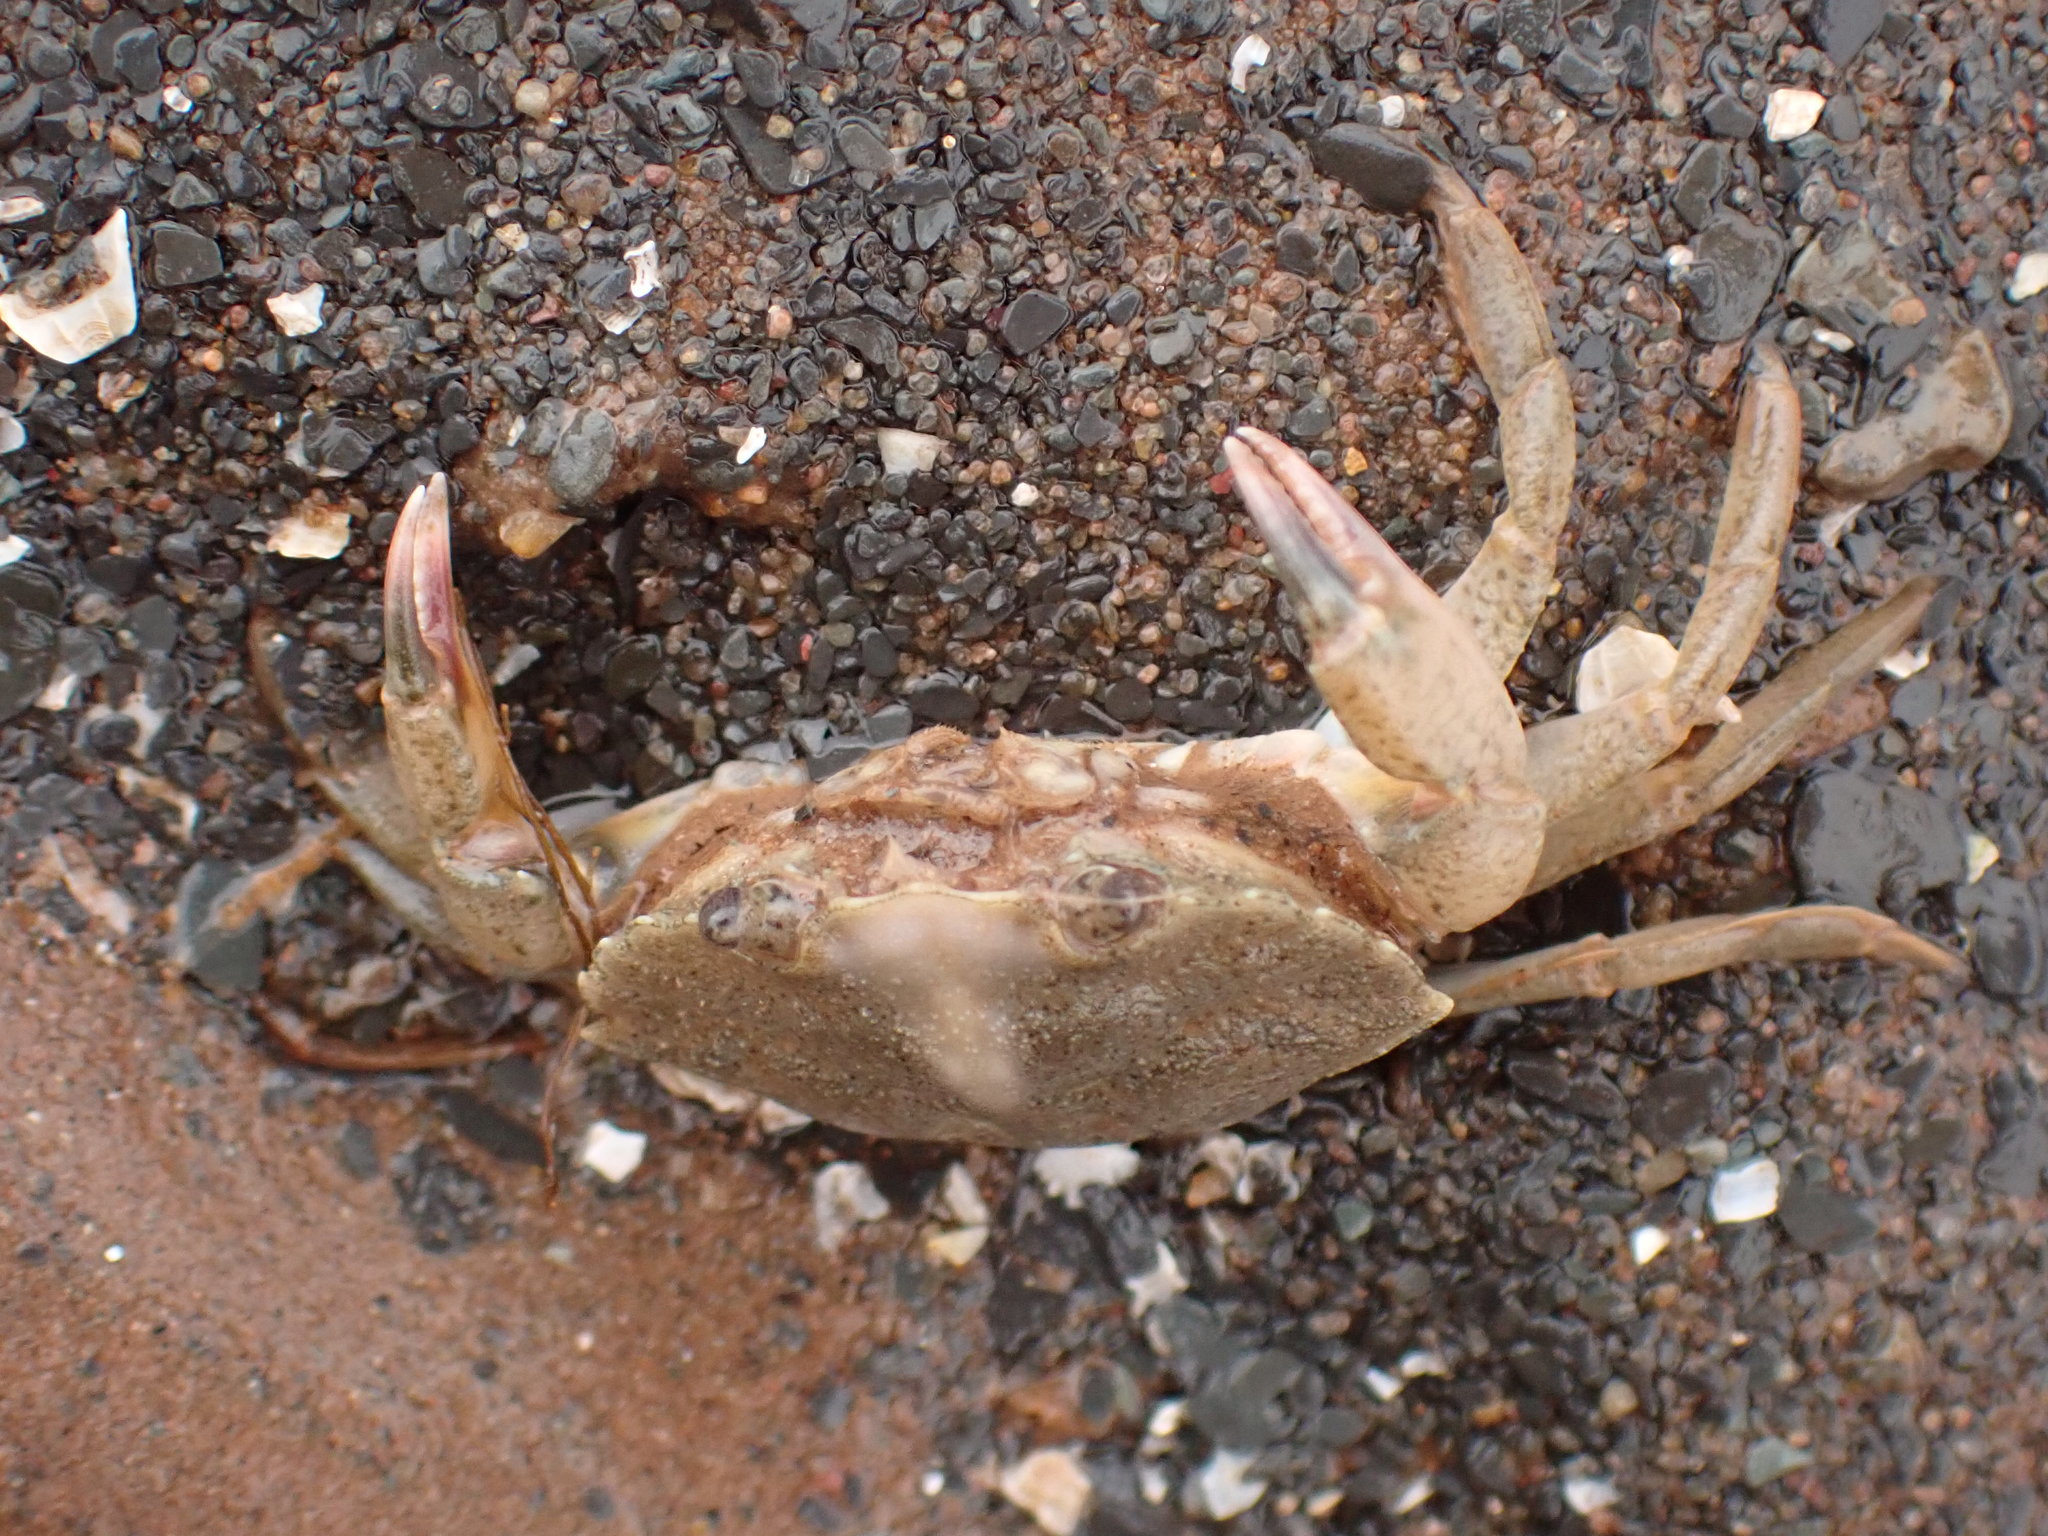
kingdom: Animalia
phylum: Arthropoda
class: Malacostraca
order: Decapoda
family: Carcinidae
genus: Carcinus
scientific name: Carcinus maenas
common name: European green crab
